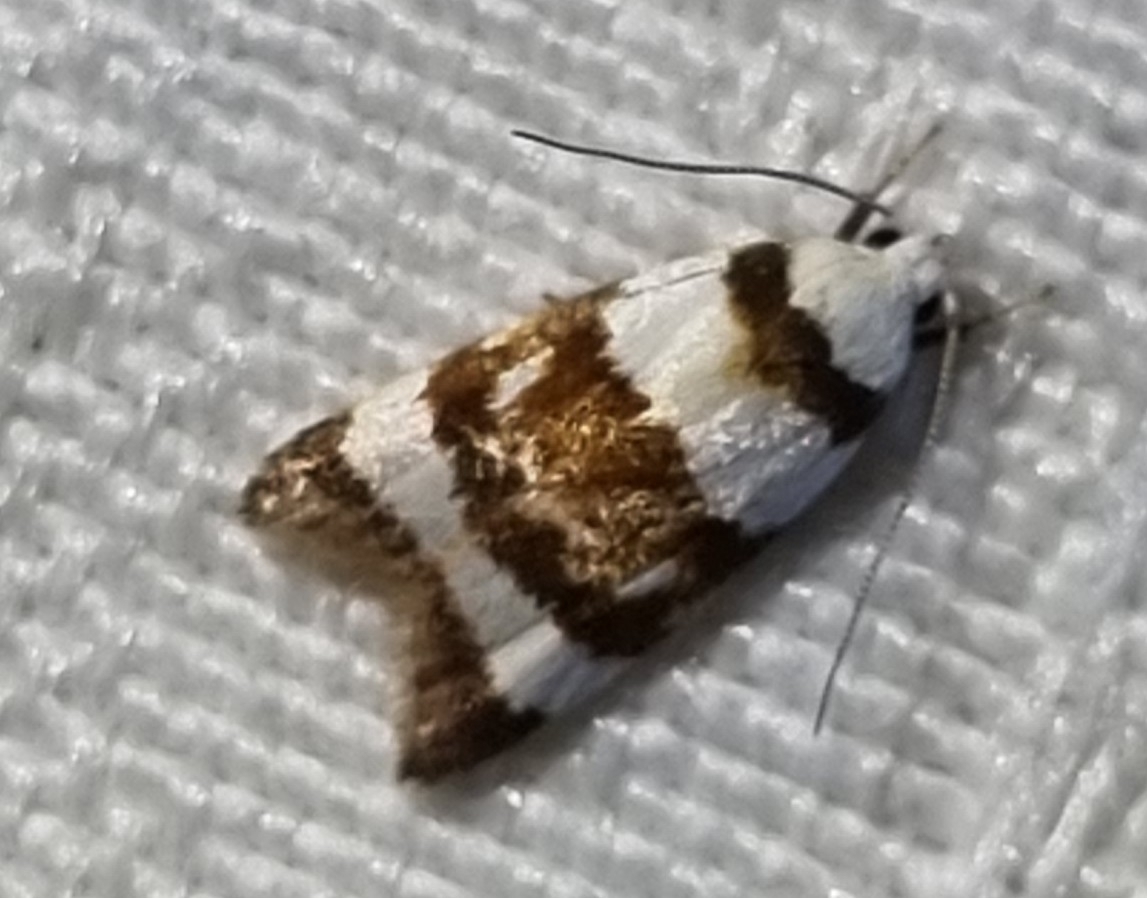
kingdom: Animalia
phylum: Arthropoda
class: Insecta
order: Lepidoptera
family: Oecophoridae
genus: Catacometes
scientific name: Catacometes phanozona
